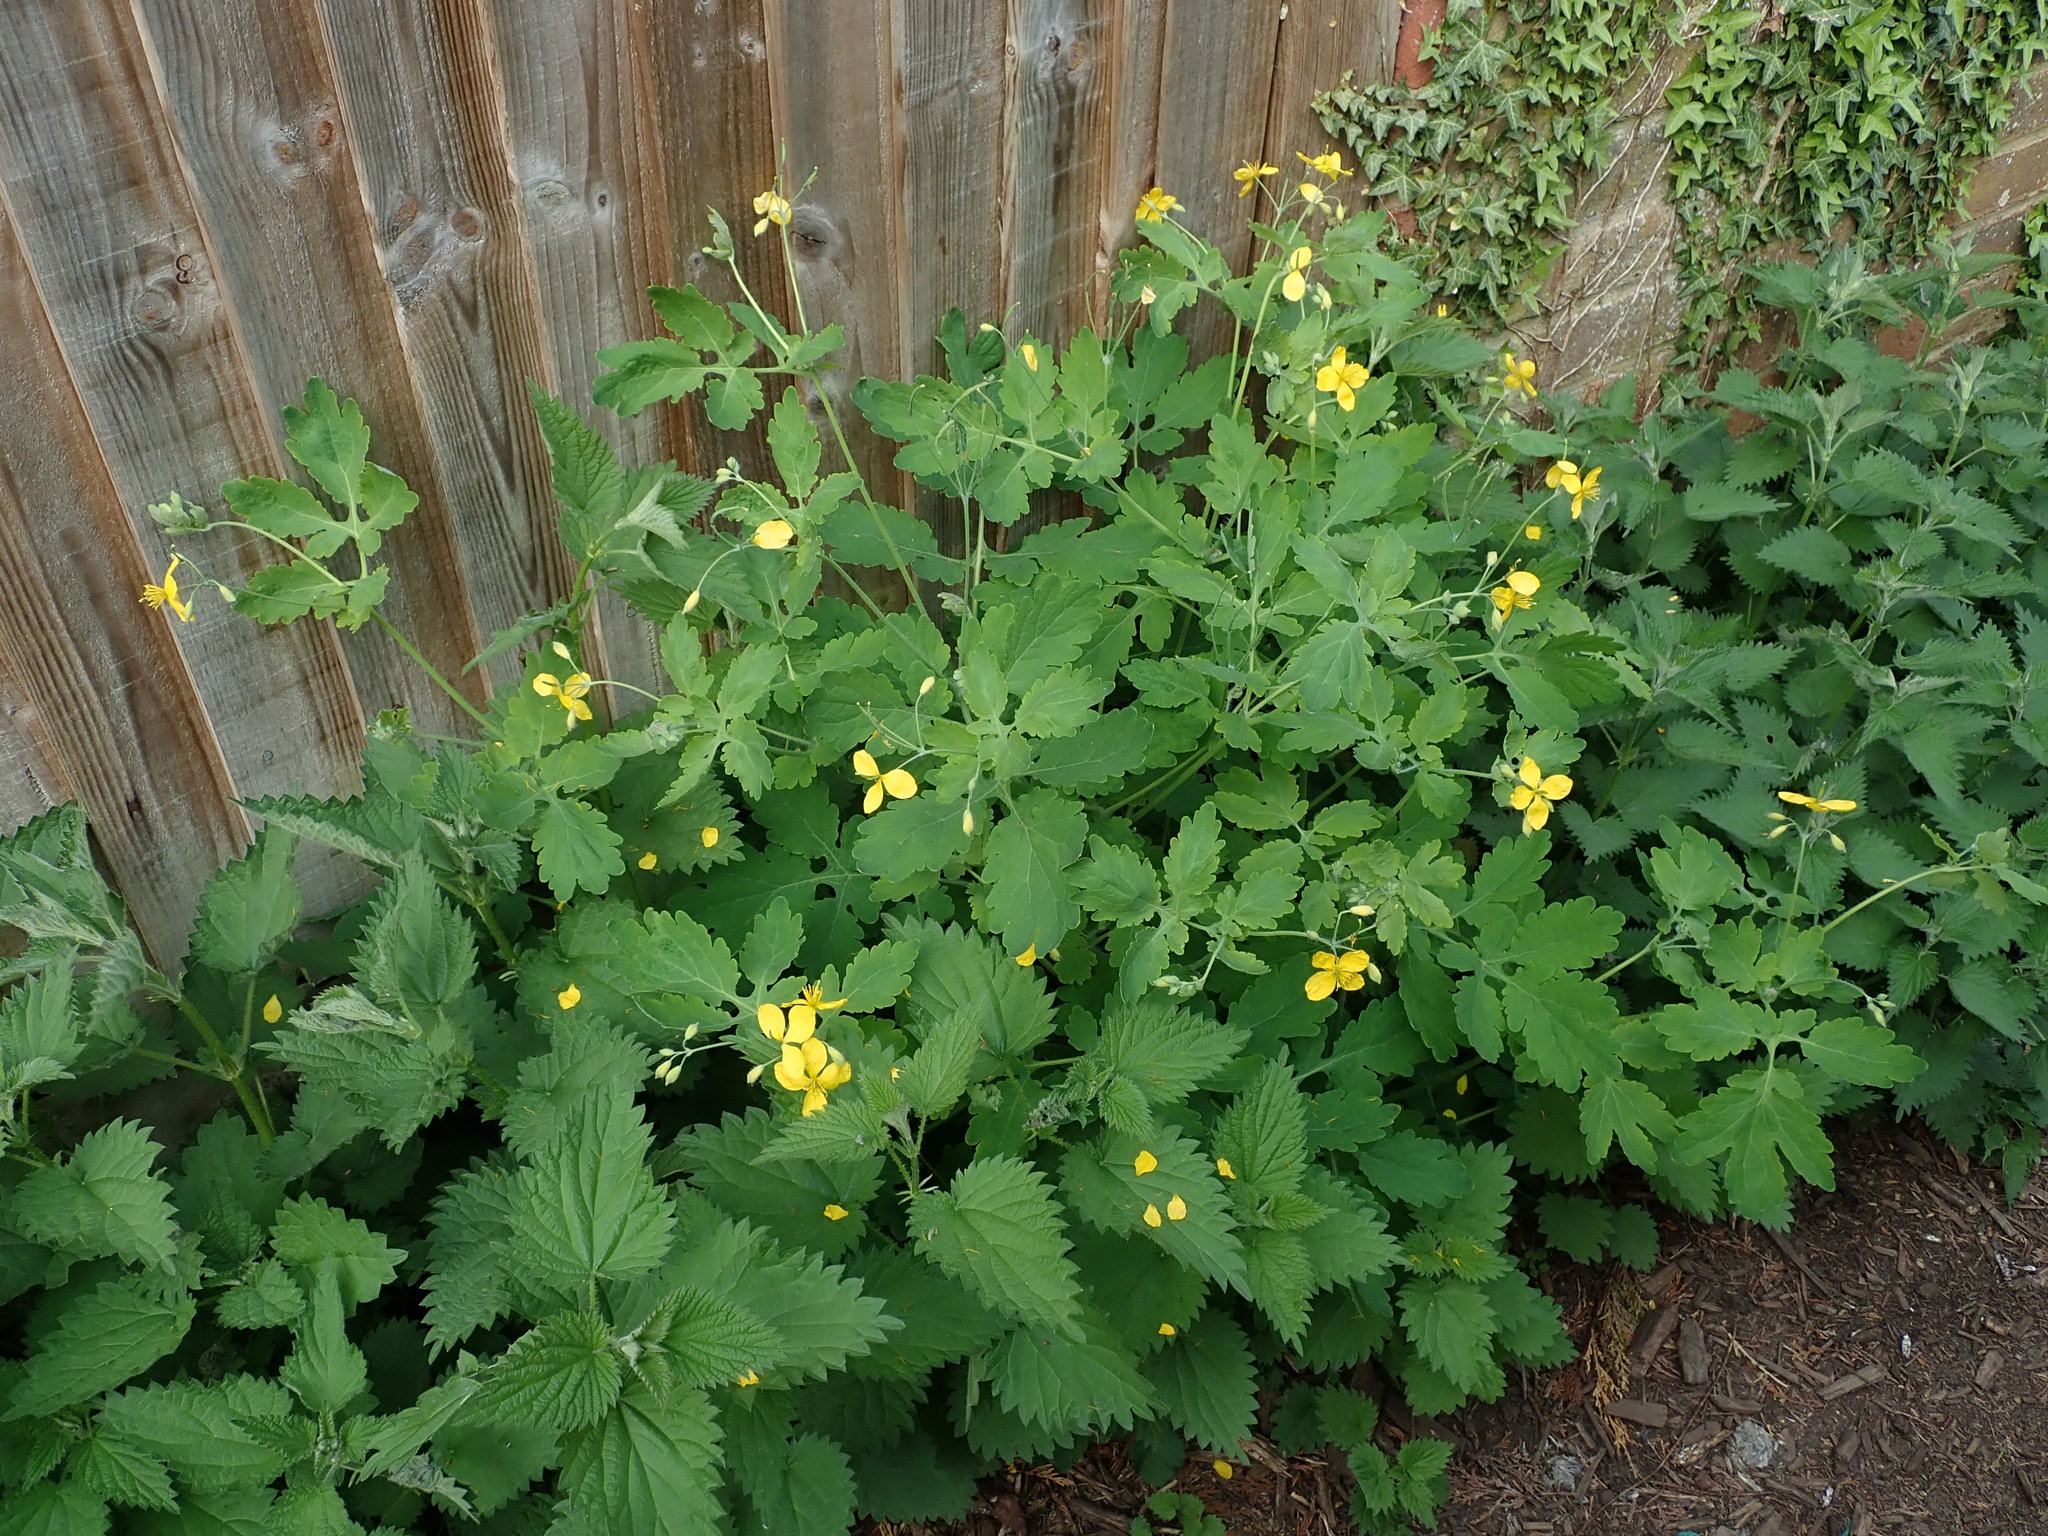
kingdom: Plantae
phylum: Tracheophyta
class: Magnoliopsida
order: Ranunculales
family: Papaveraceae
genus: Chelidonium
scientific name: Chelidonium majus
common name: Greater celandine
